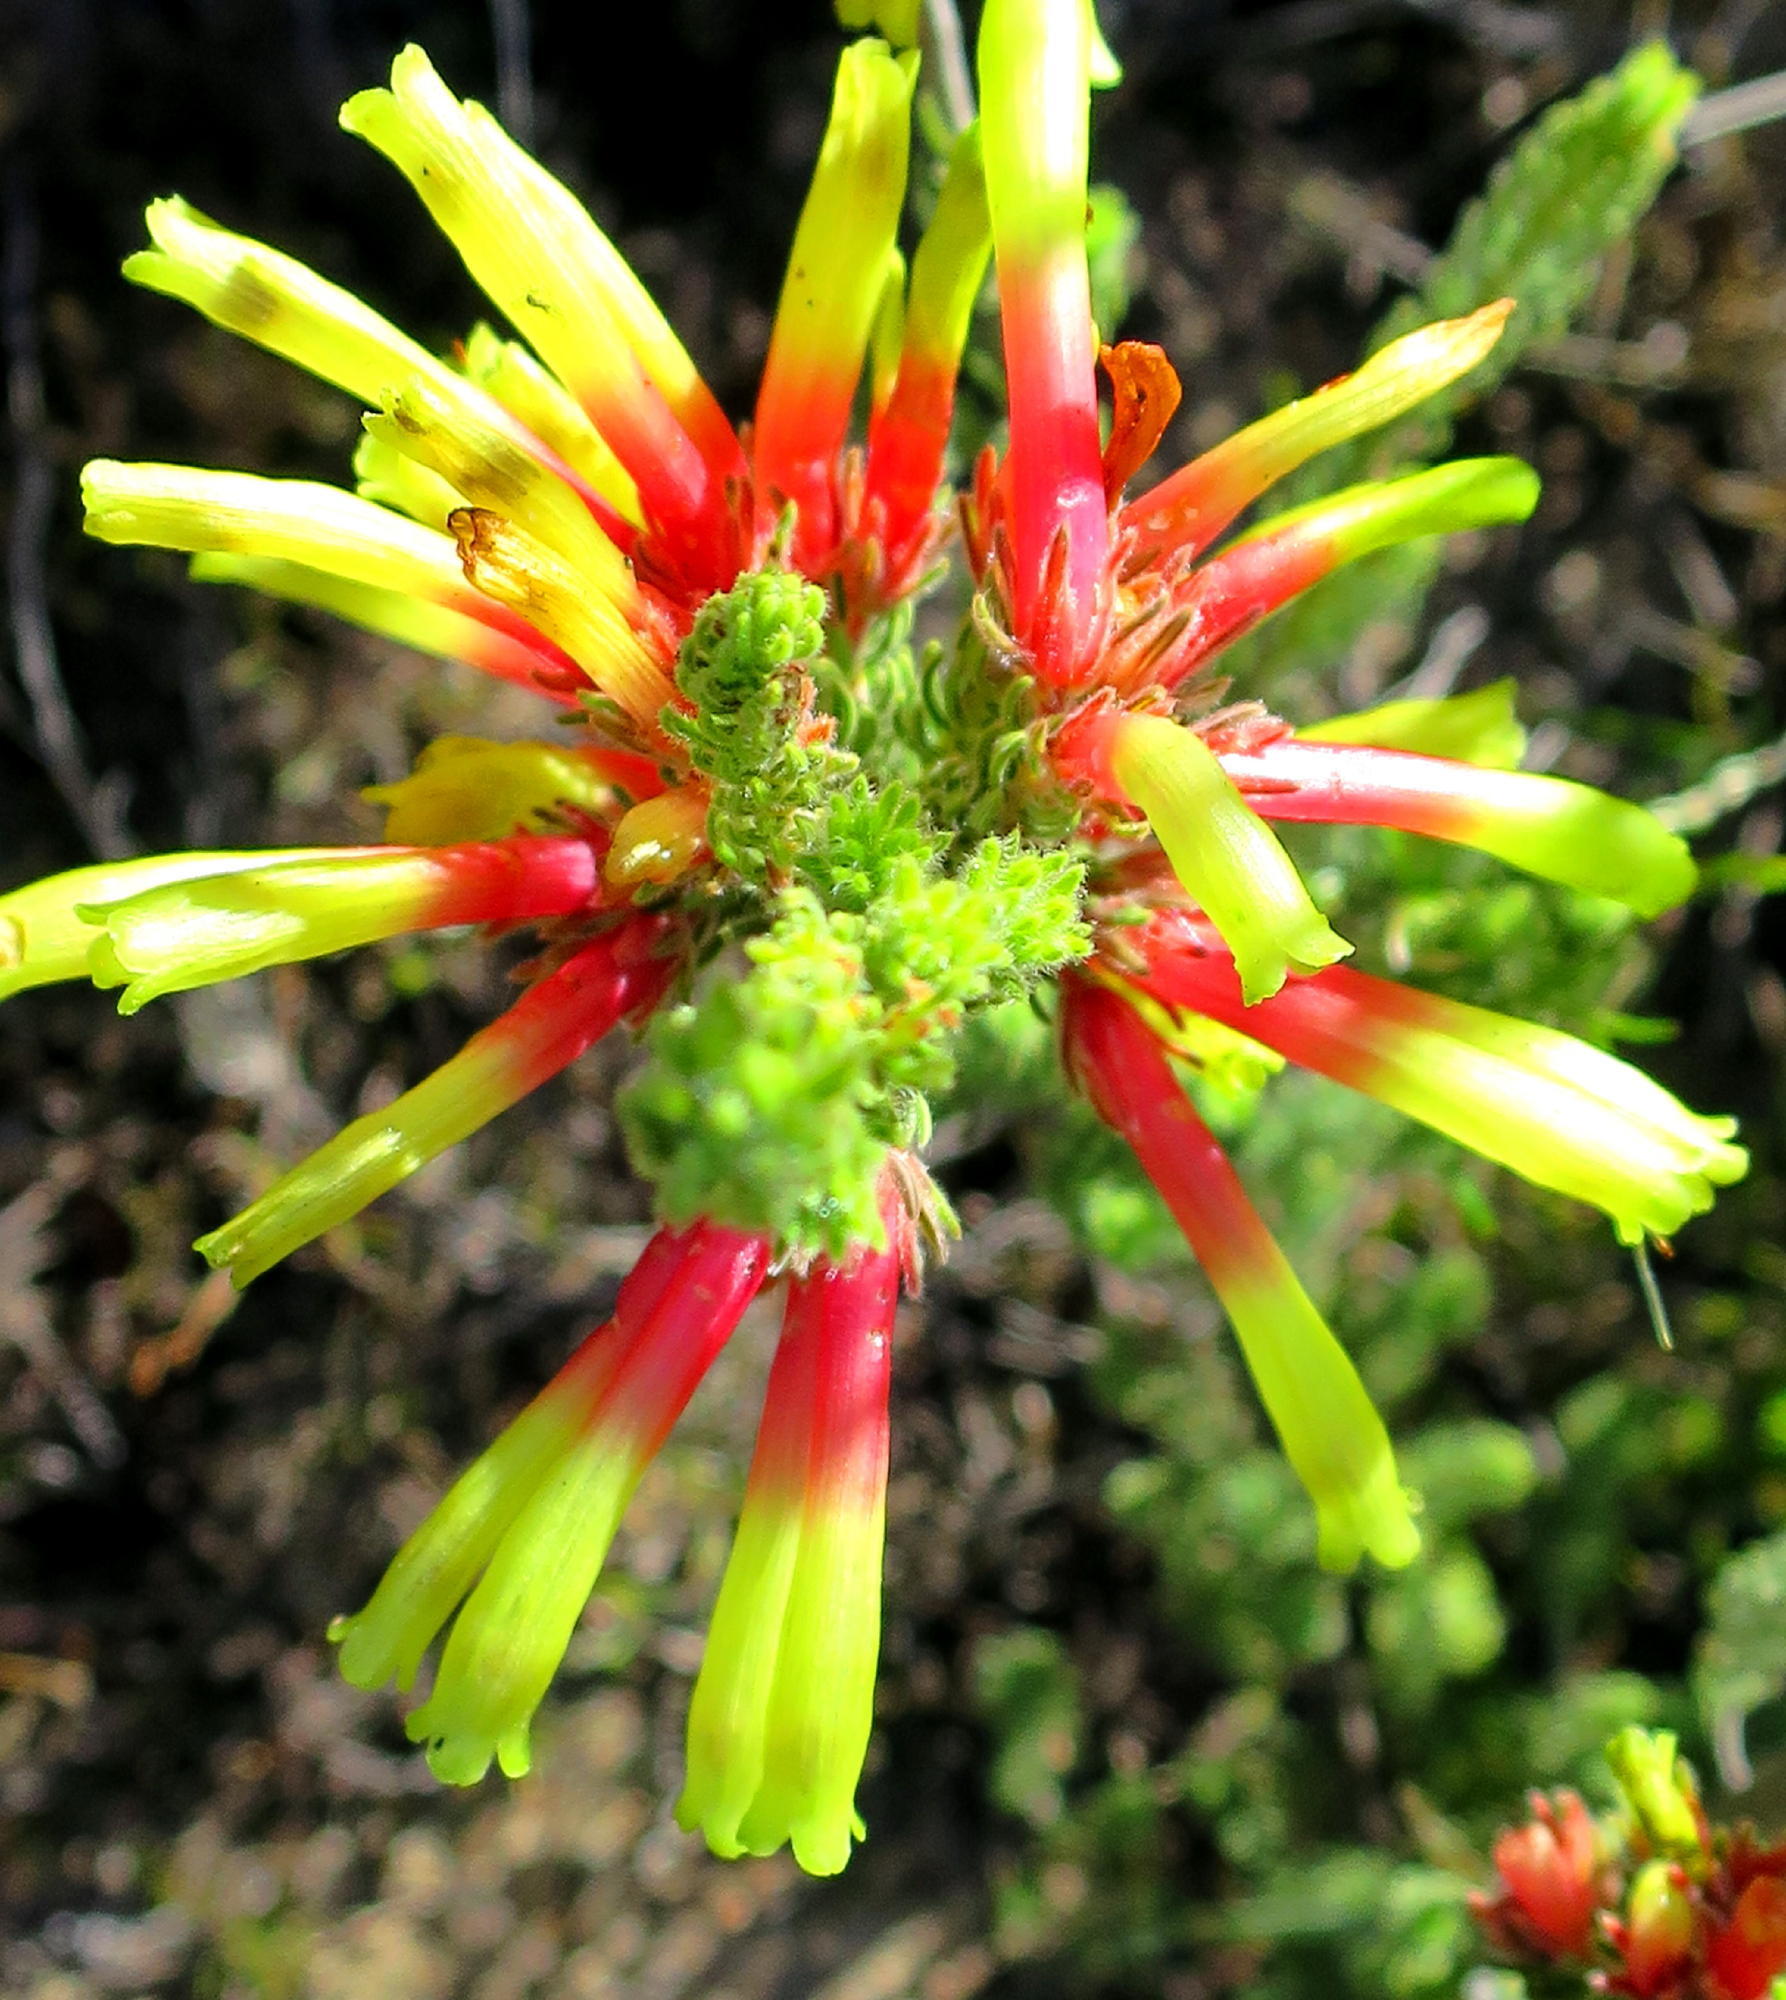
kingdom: Plantae
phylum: Tracheophyta
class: Magnoliopsida
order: Ericales
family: Ericaceae
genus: Erica
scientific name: Erica unicolor
